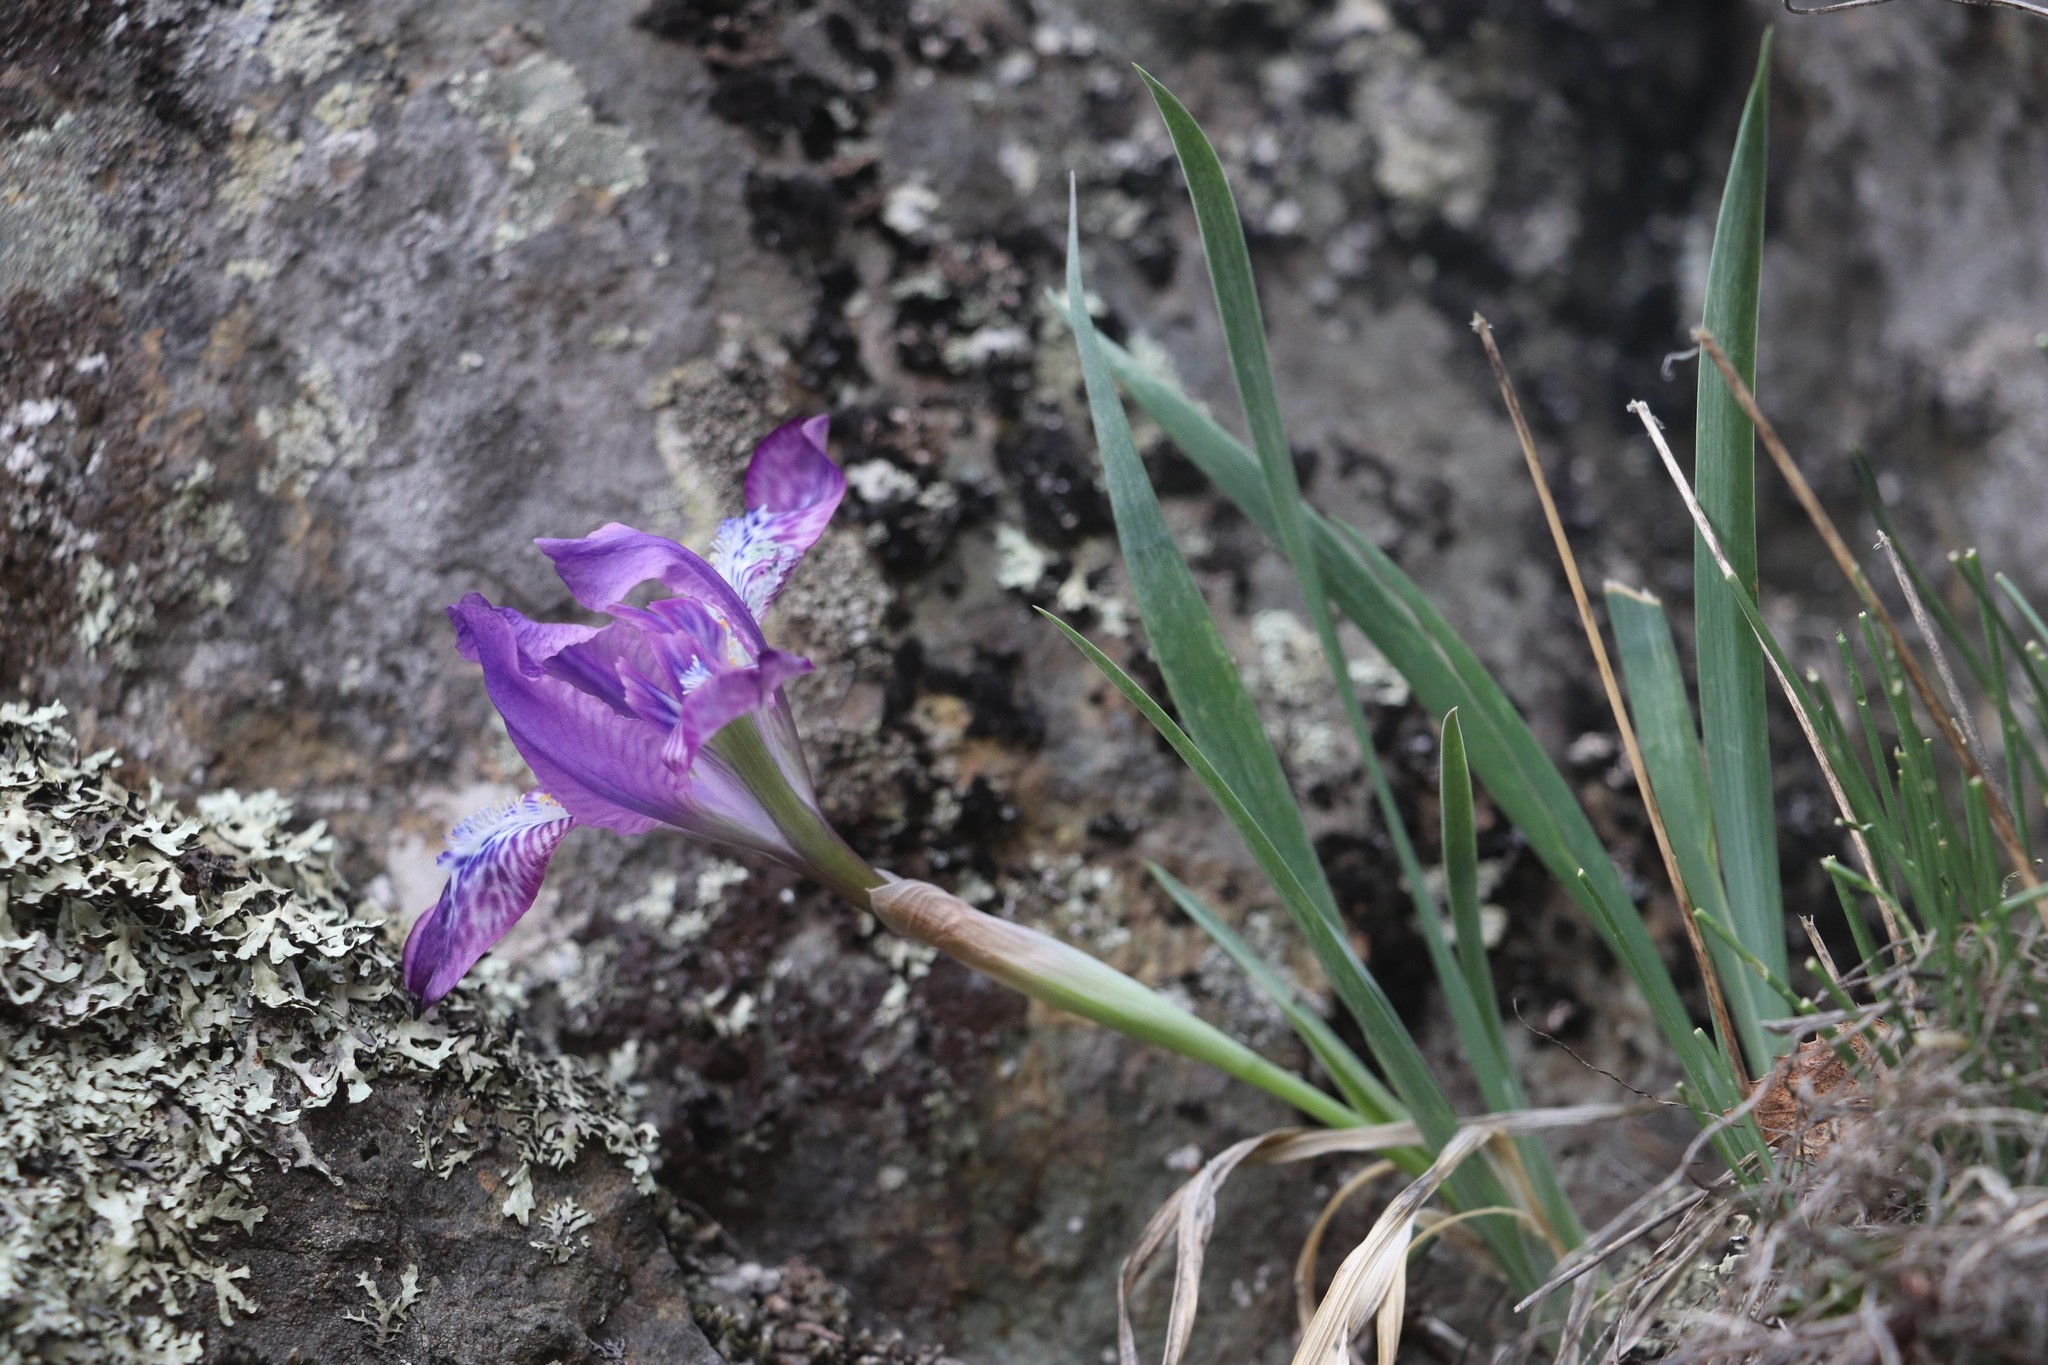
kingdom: Plantae
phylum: Tracheophyta
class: Liliopsida
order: Asparagales
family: Iridaceae
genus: Iris
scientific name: Iris tigridia
